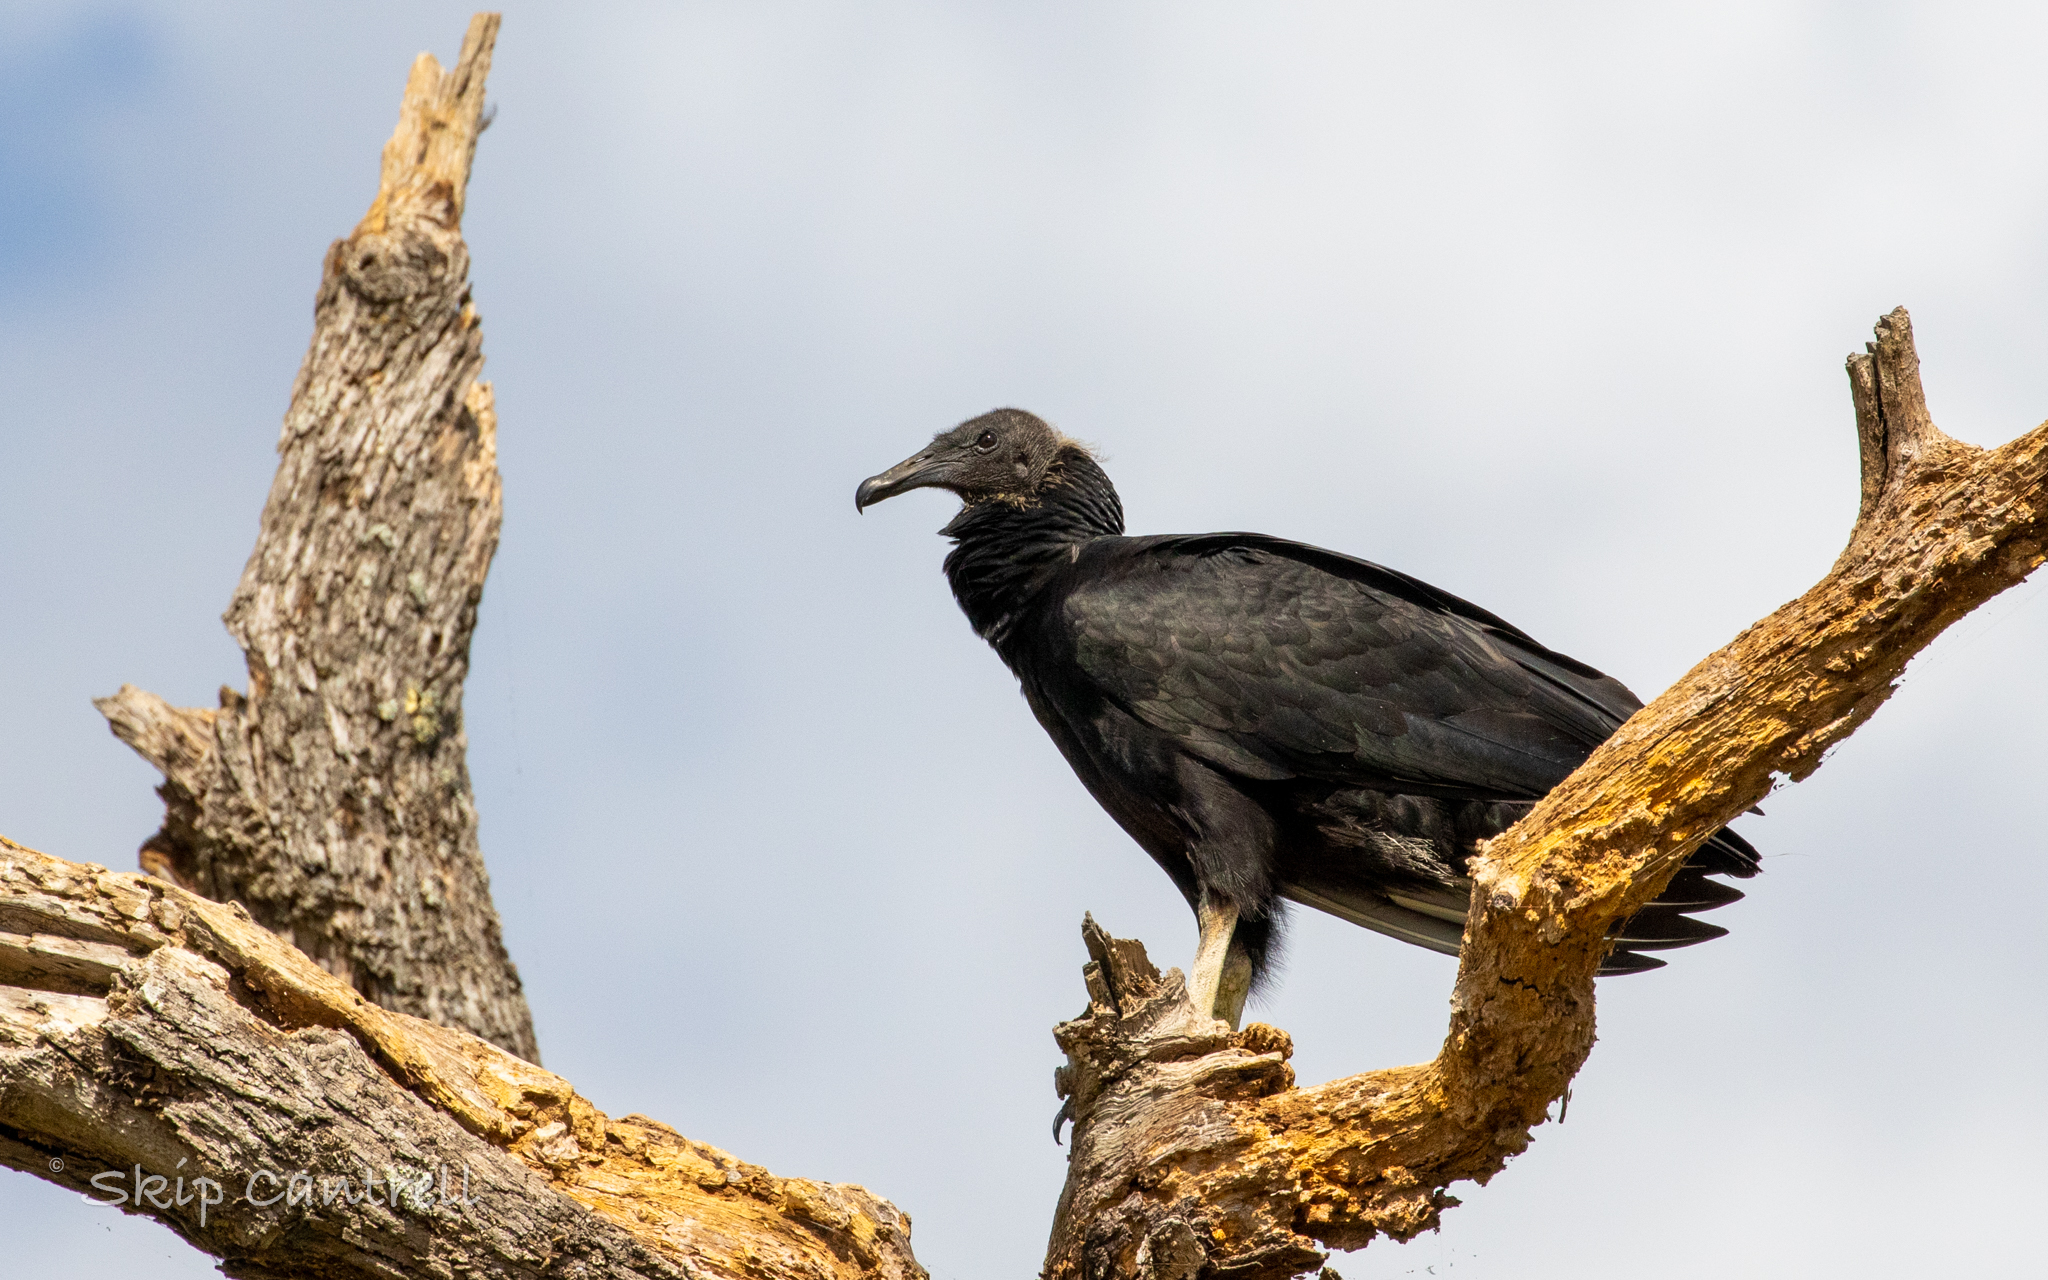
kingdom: Animalia
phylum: Chordata
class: Aves
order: Accipitriformes
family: Cathartidae
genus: Coragyps
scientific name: Coragyps atratus
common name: Black vulture
